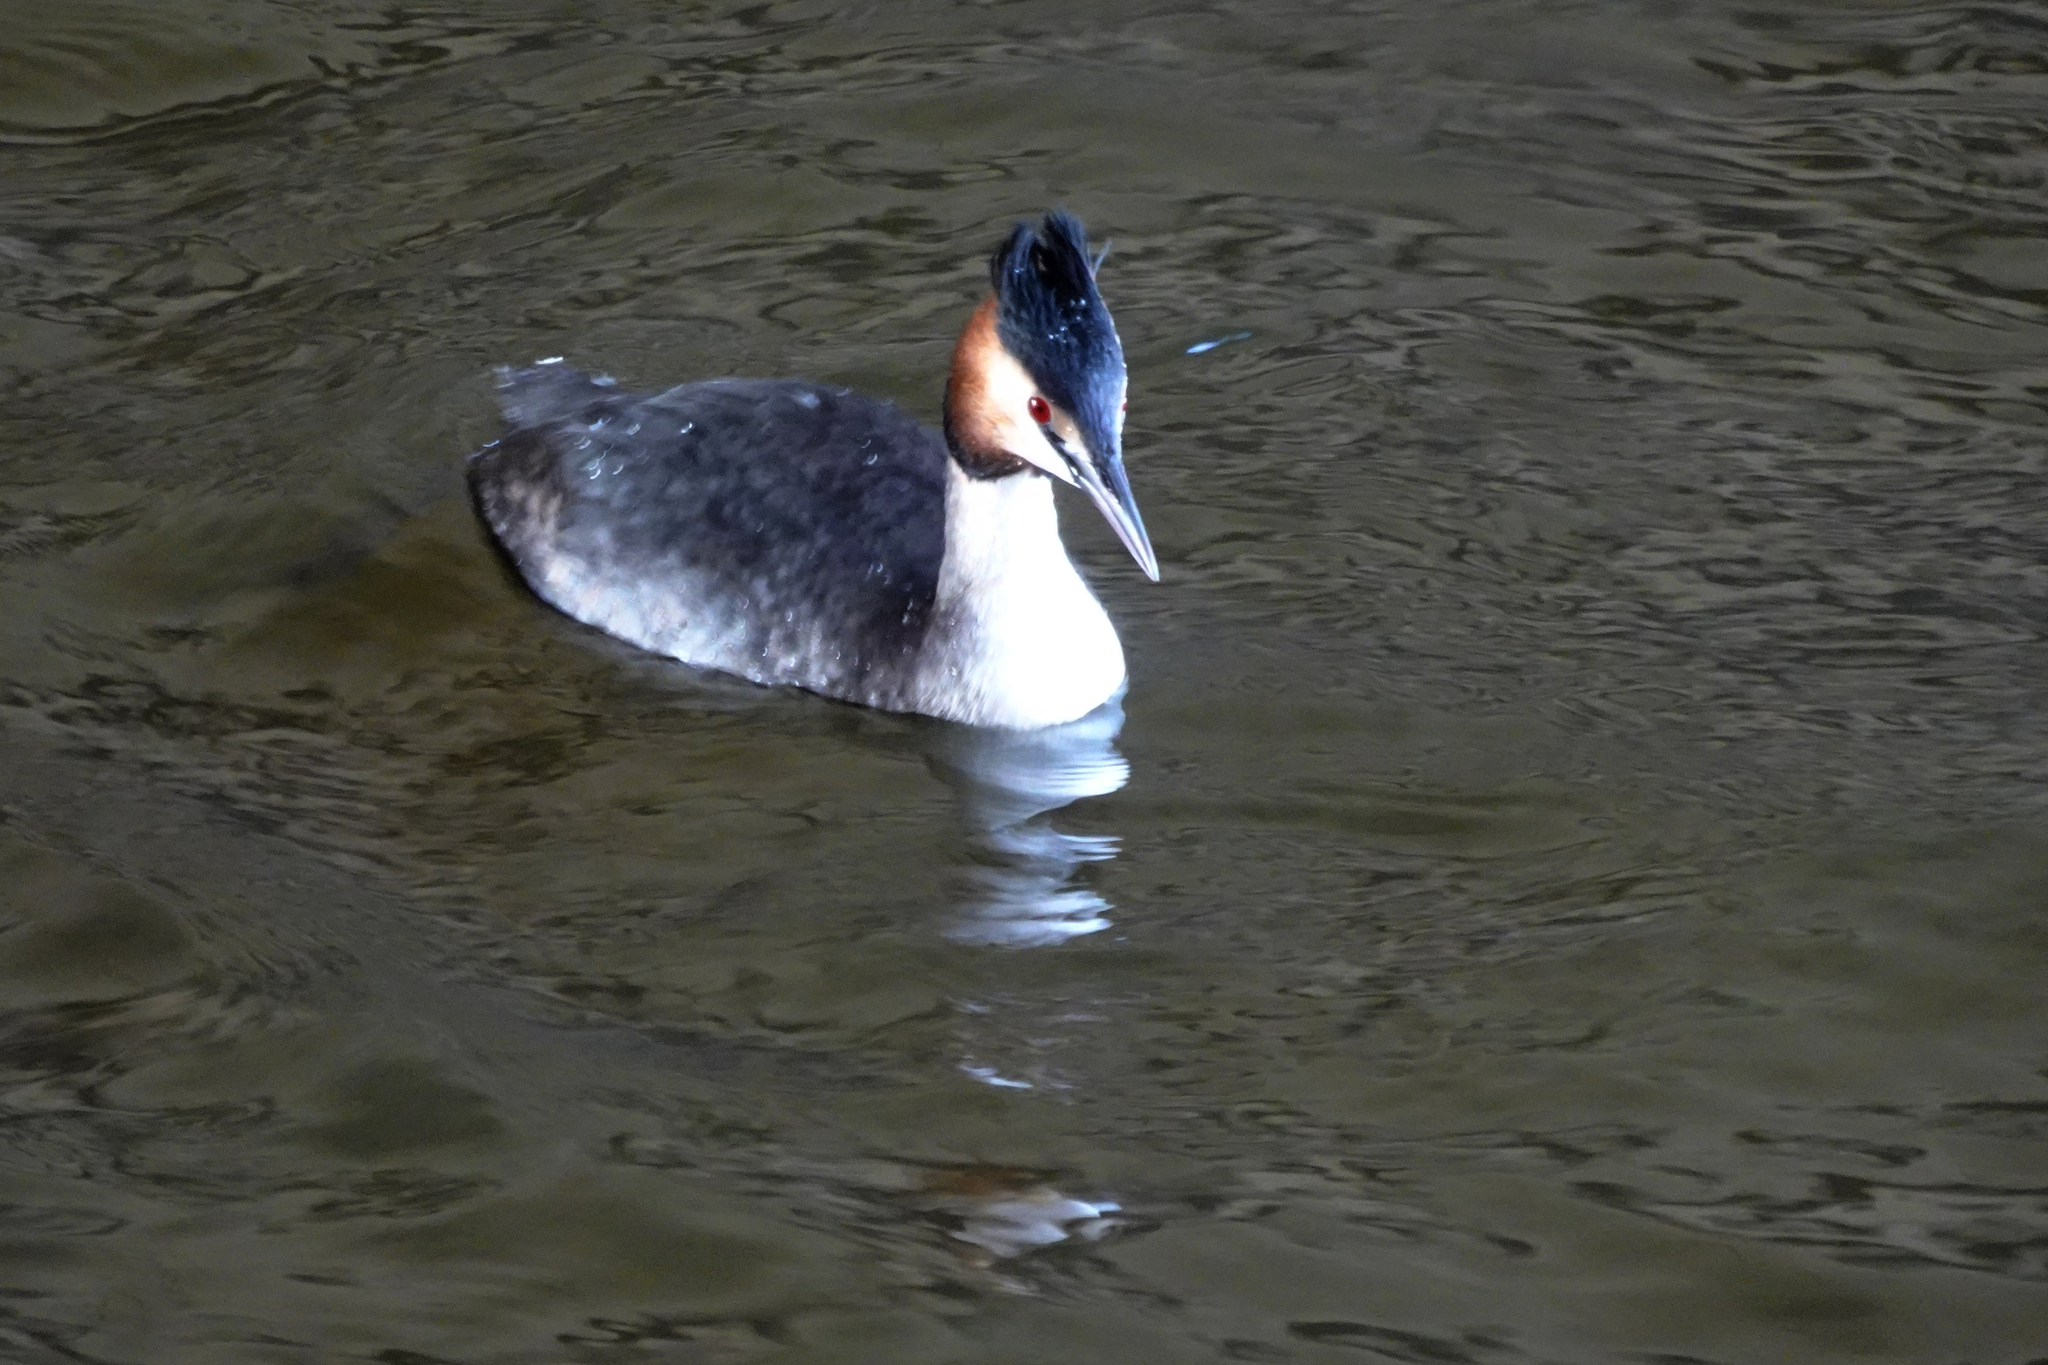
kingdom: Animalia
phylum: Chordata
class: Aves
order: Podicipediformes
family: Podicipedidae
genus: Podiceps
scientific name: Podiceps cristatus
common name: Great crested grebe
